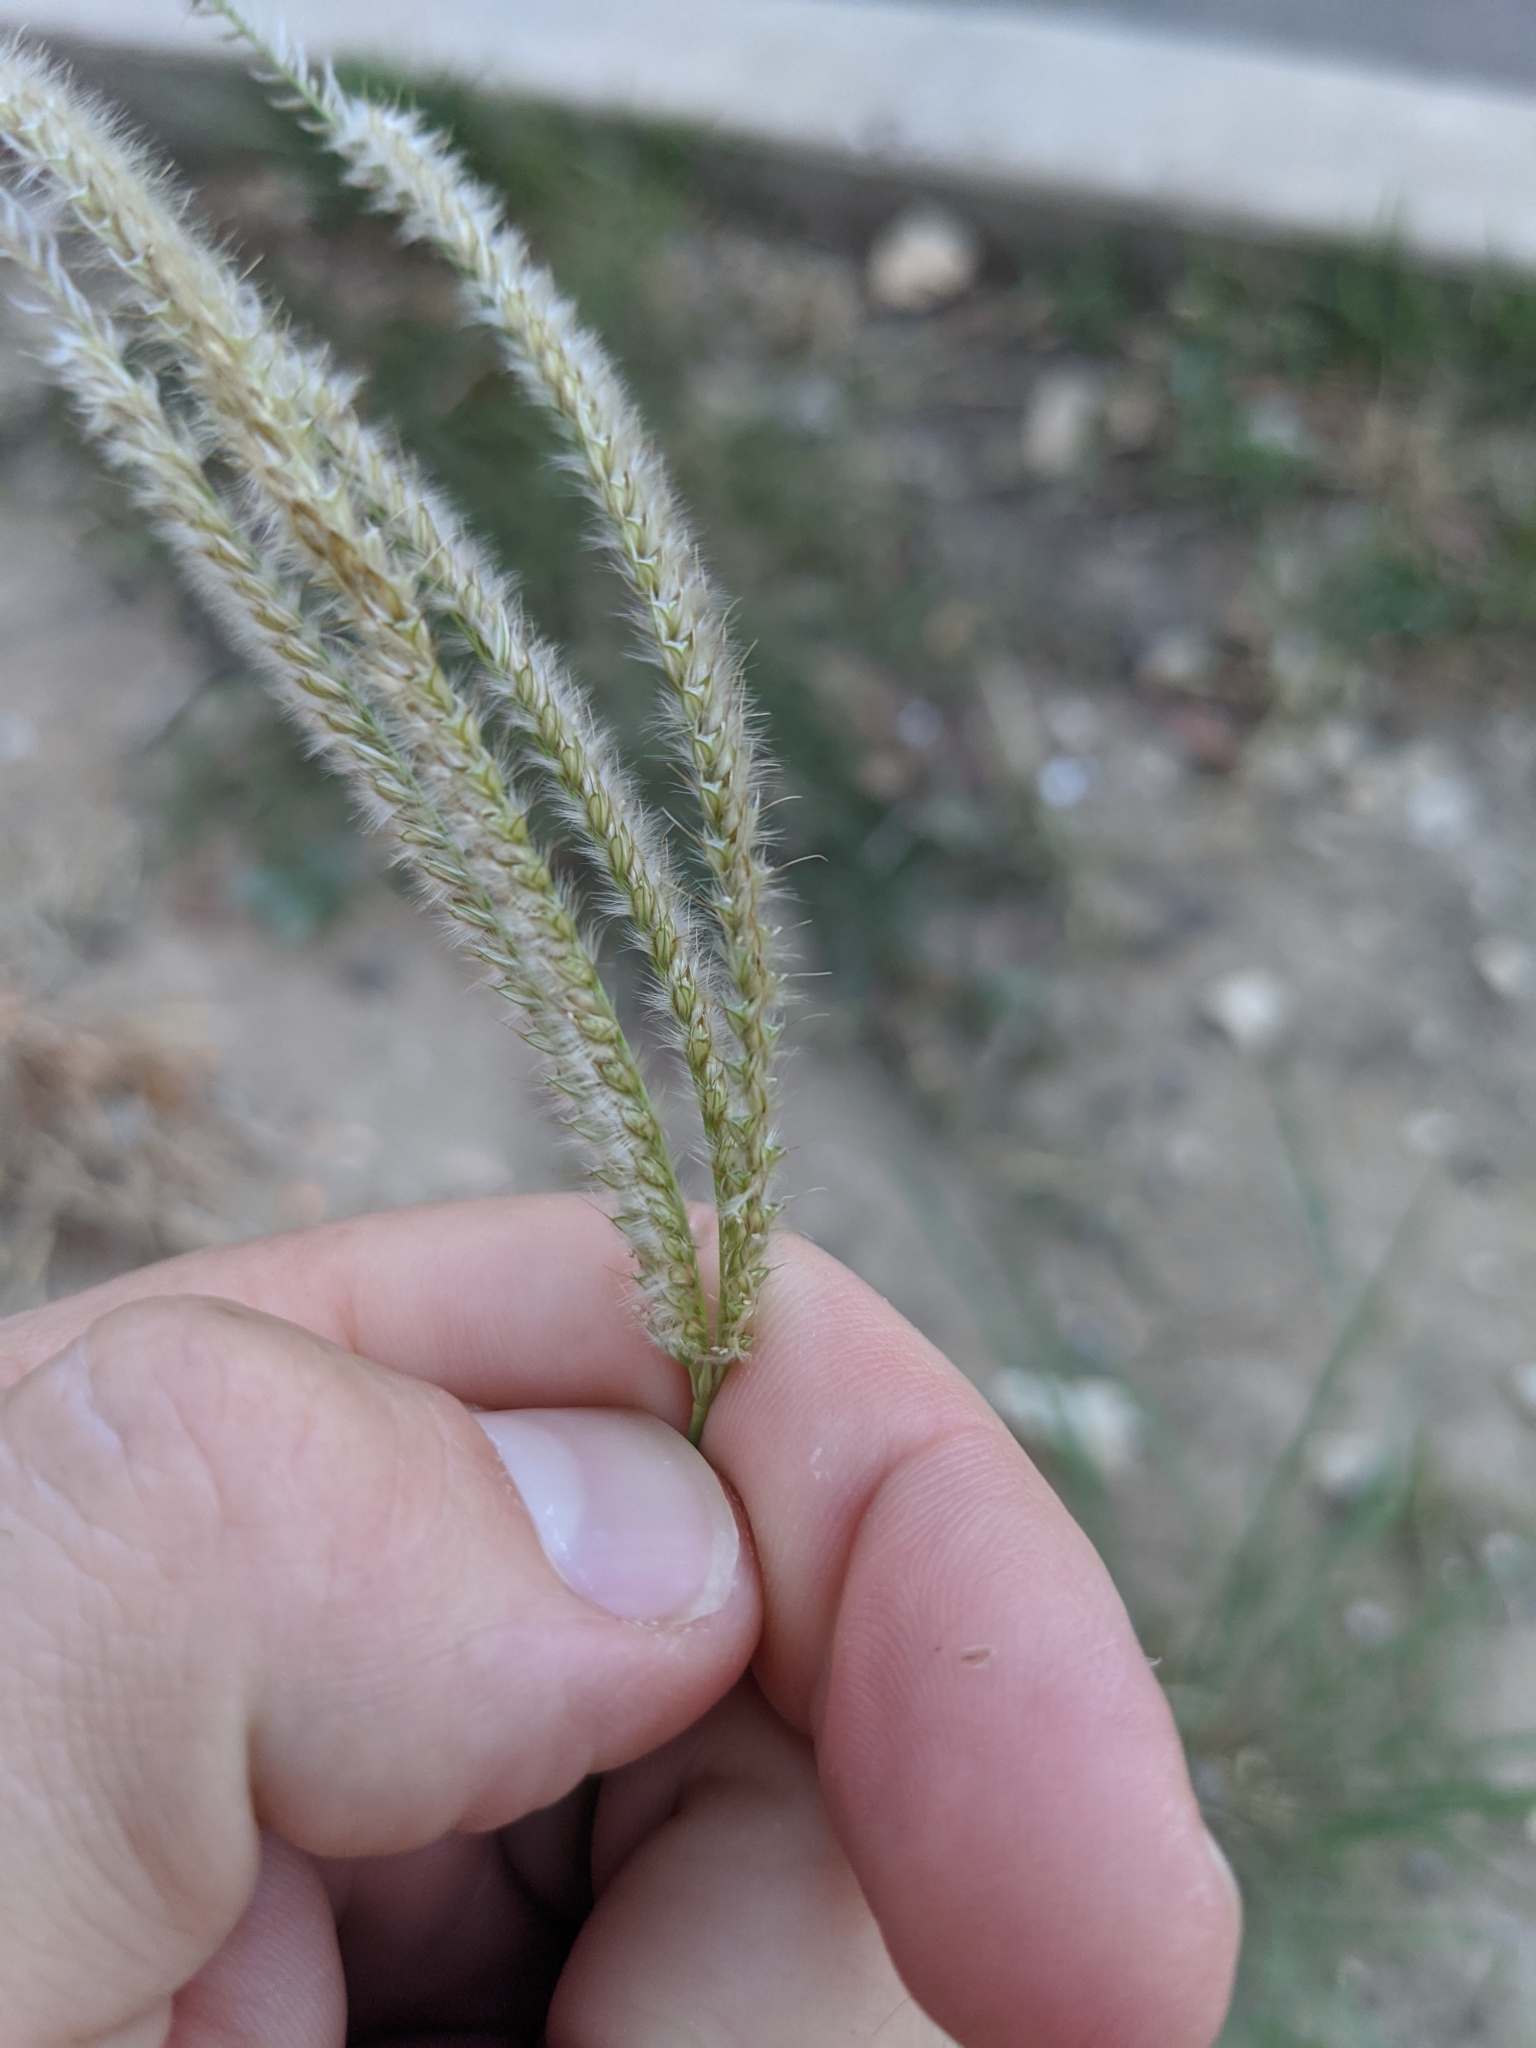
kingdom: Plantae
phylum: Tracheophyta
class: Liliopsida
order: Poales
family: Poaceae
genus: Stapfochloa
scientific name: Stapfochloa canterae
